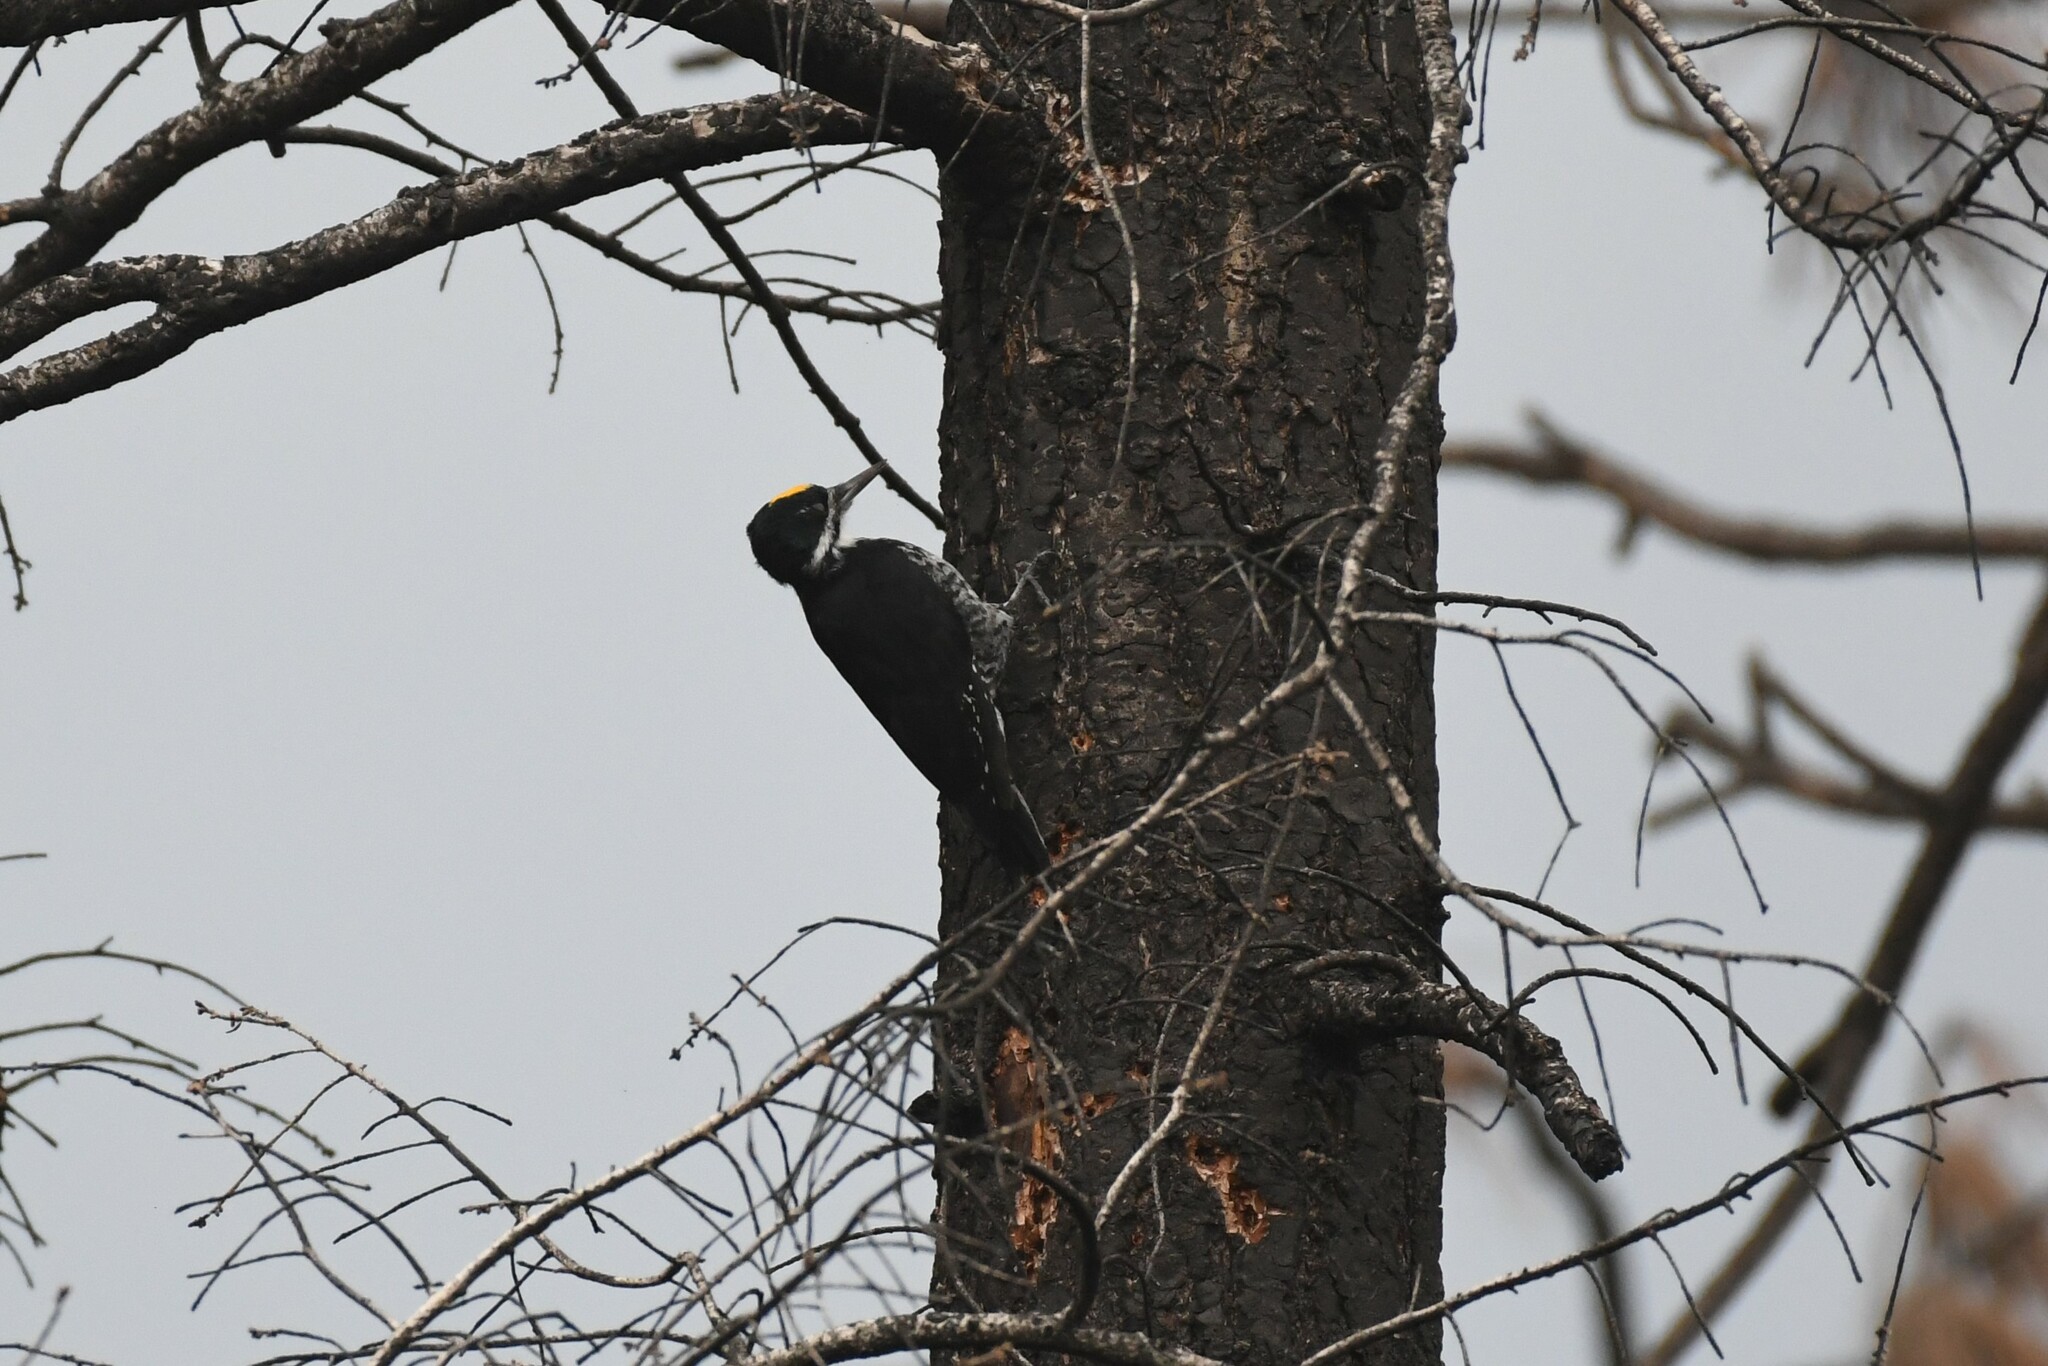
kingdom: Animalia
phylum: Chordata
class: Aves
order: Piciformes
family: Picidae
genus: Picoides
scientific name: Picoides arcticus
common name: Black-backed woodpecker
